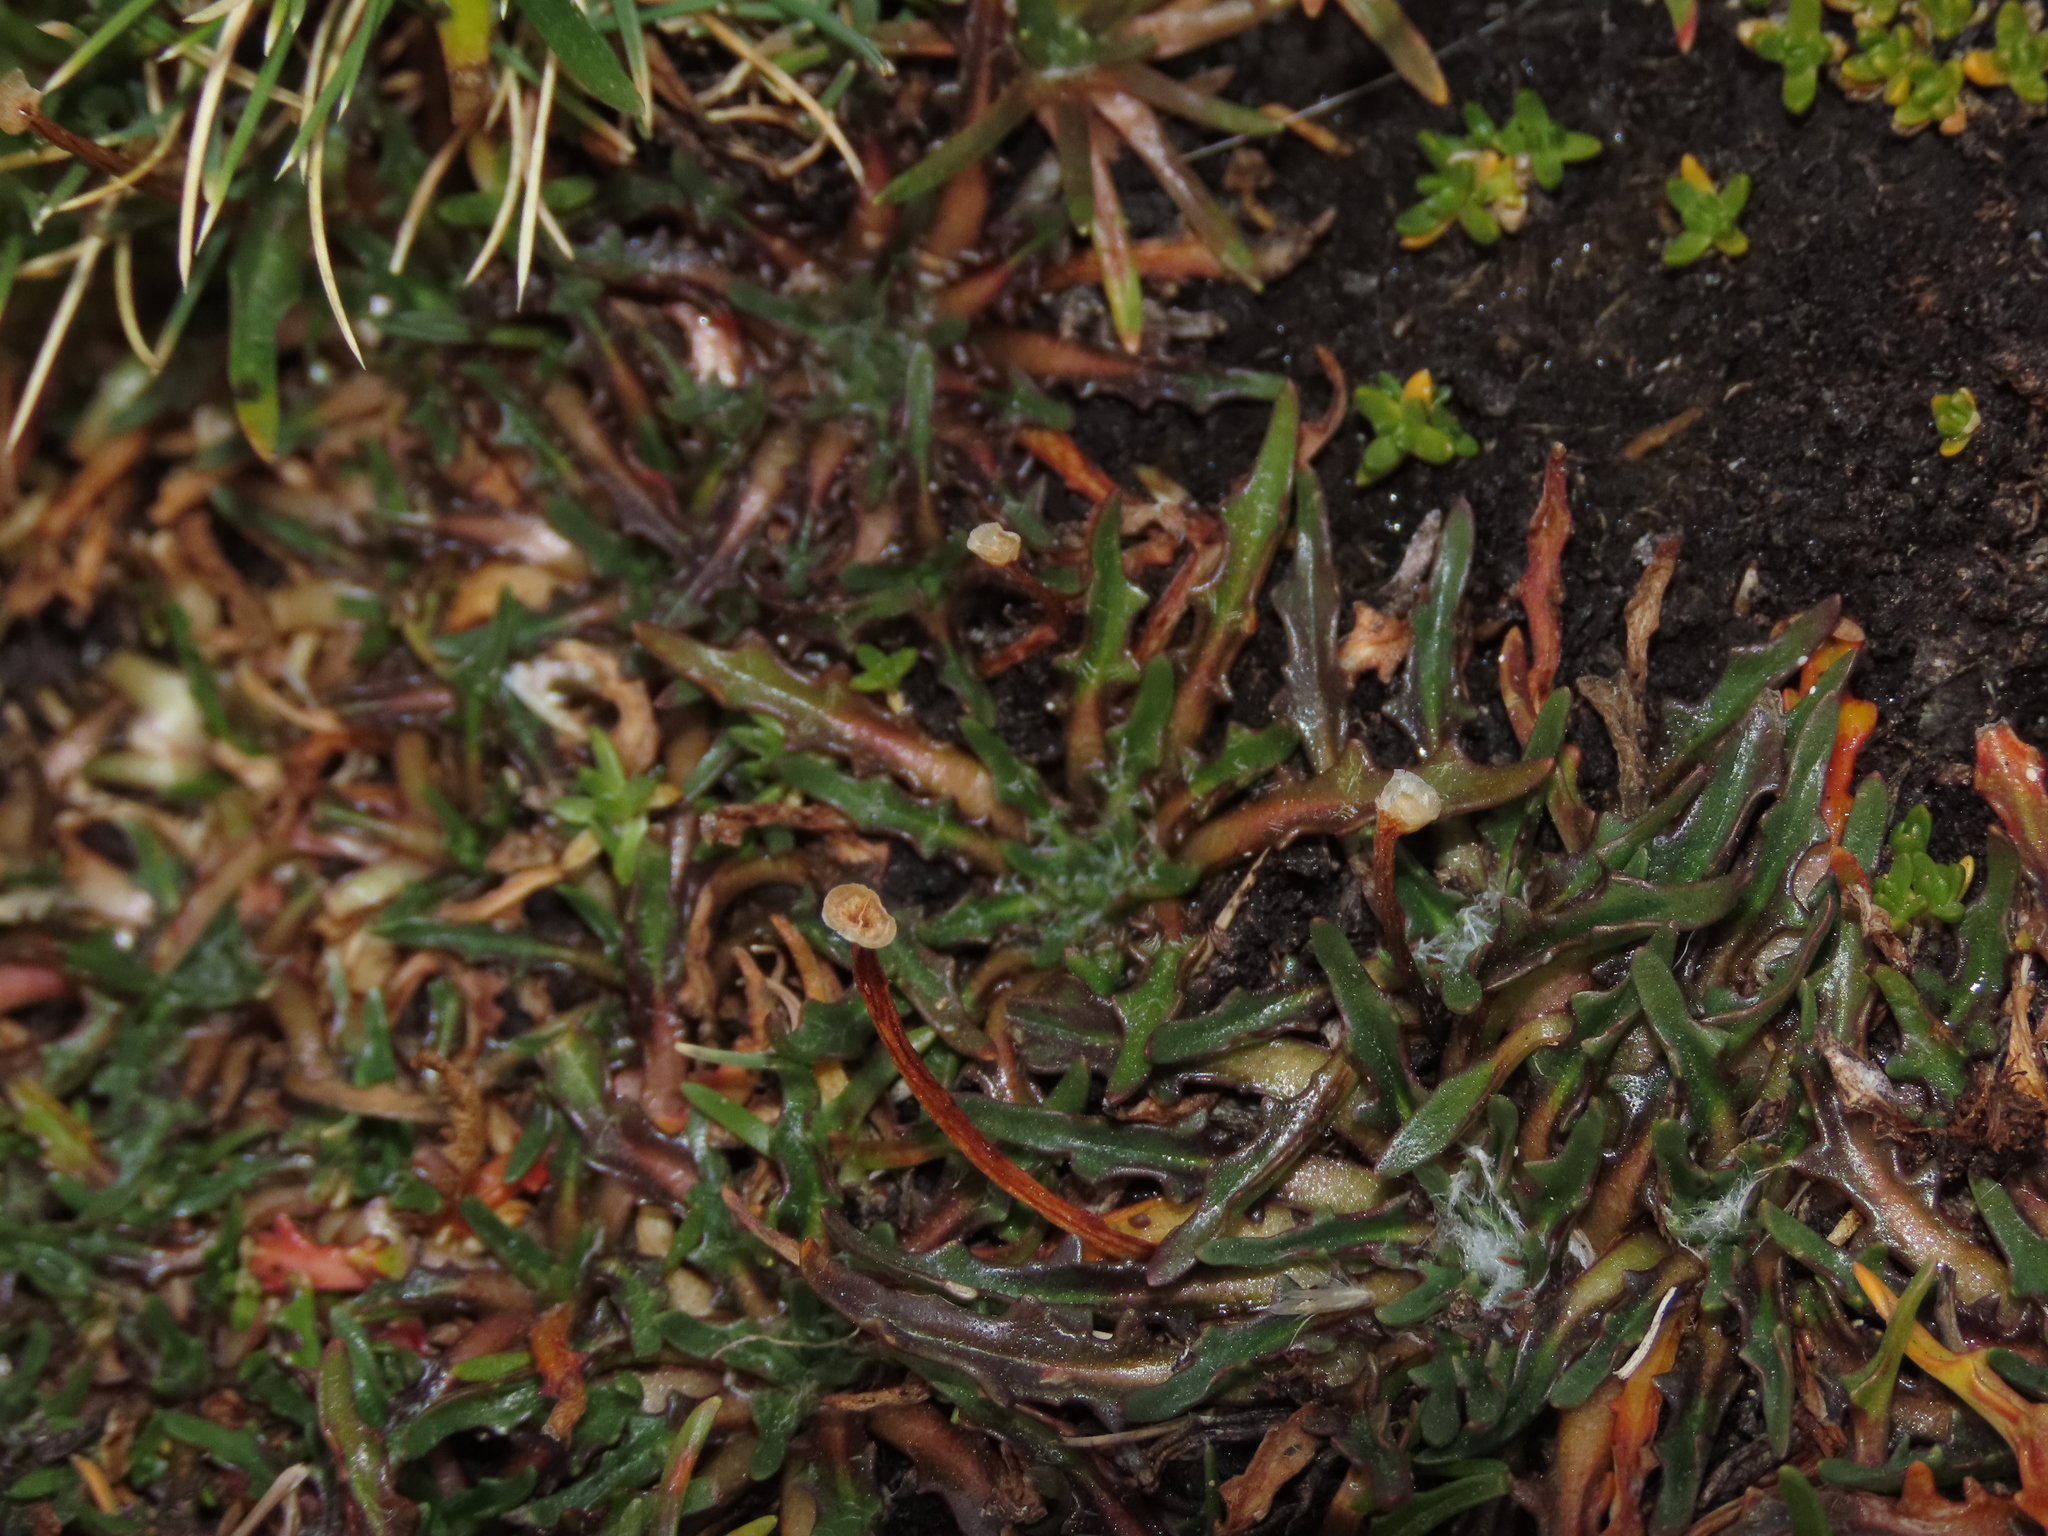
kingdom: Plantae
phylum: Tracheophyta
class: Magnoliopsida
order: Lamiales
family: Plantaginaceae
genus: Plantago
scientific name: Plantago tubulosa
